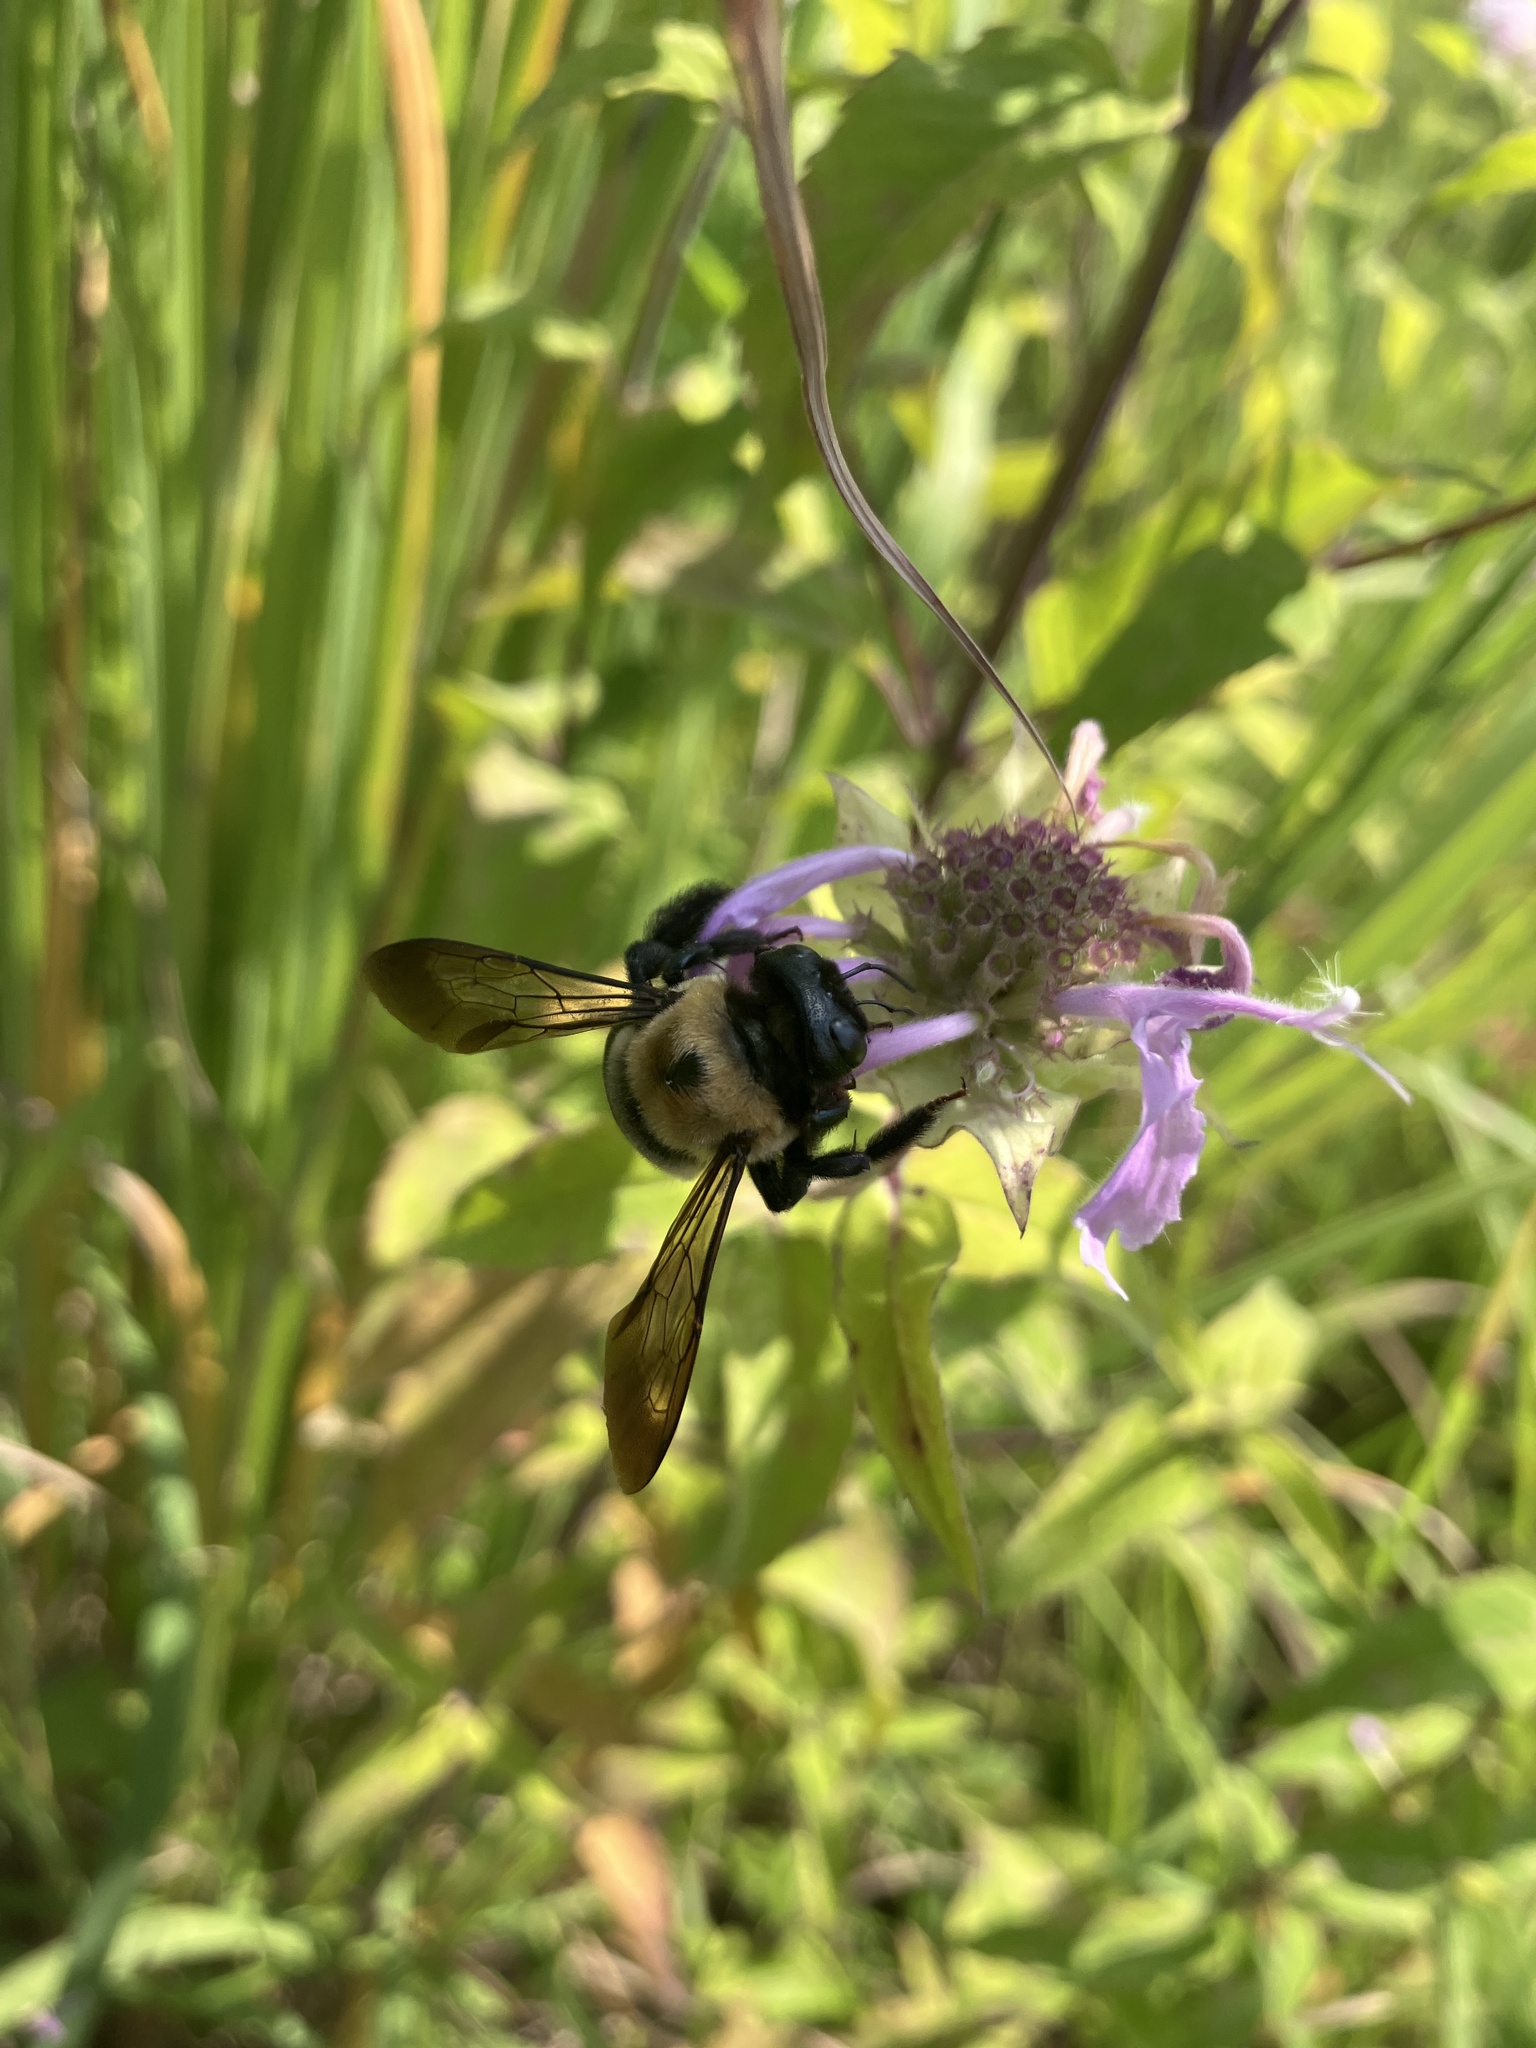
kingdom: Animalia
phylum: Arthropoda
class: Insecta
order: Hymenoptera
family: Apidae
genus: Xylocopa
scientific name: Xylocopa virginica
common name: Carpenter bee
